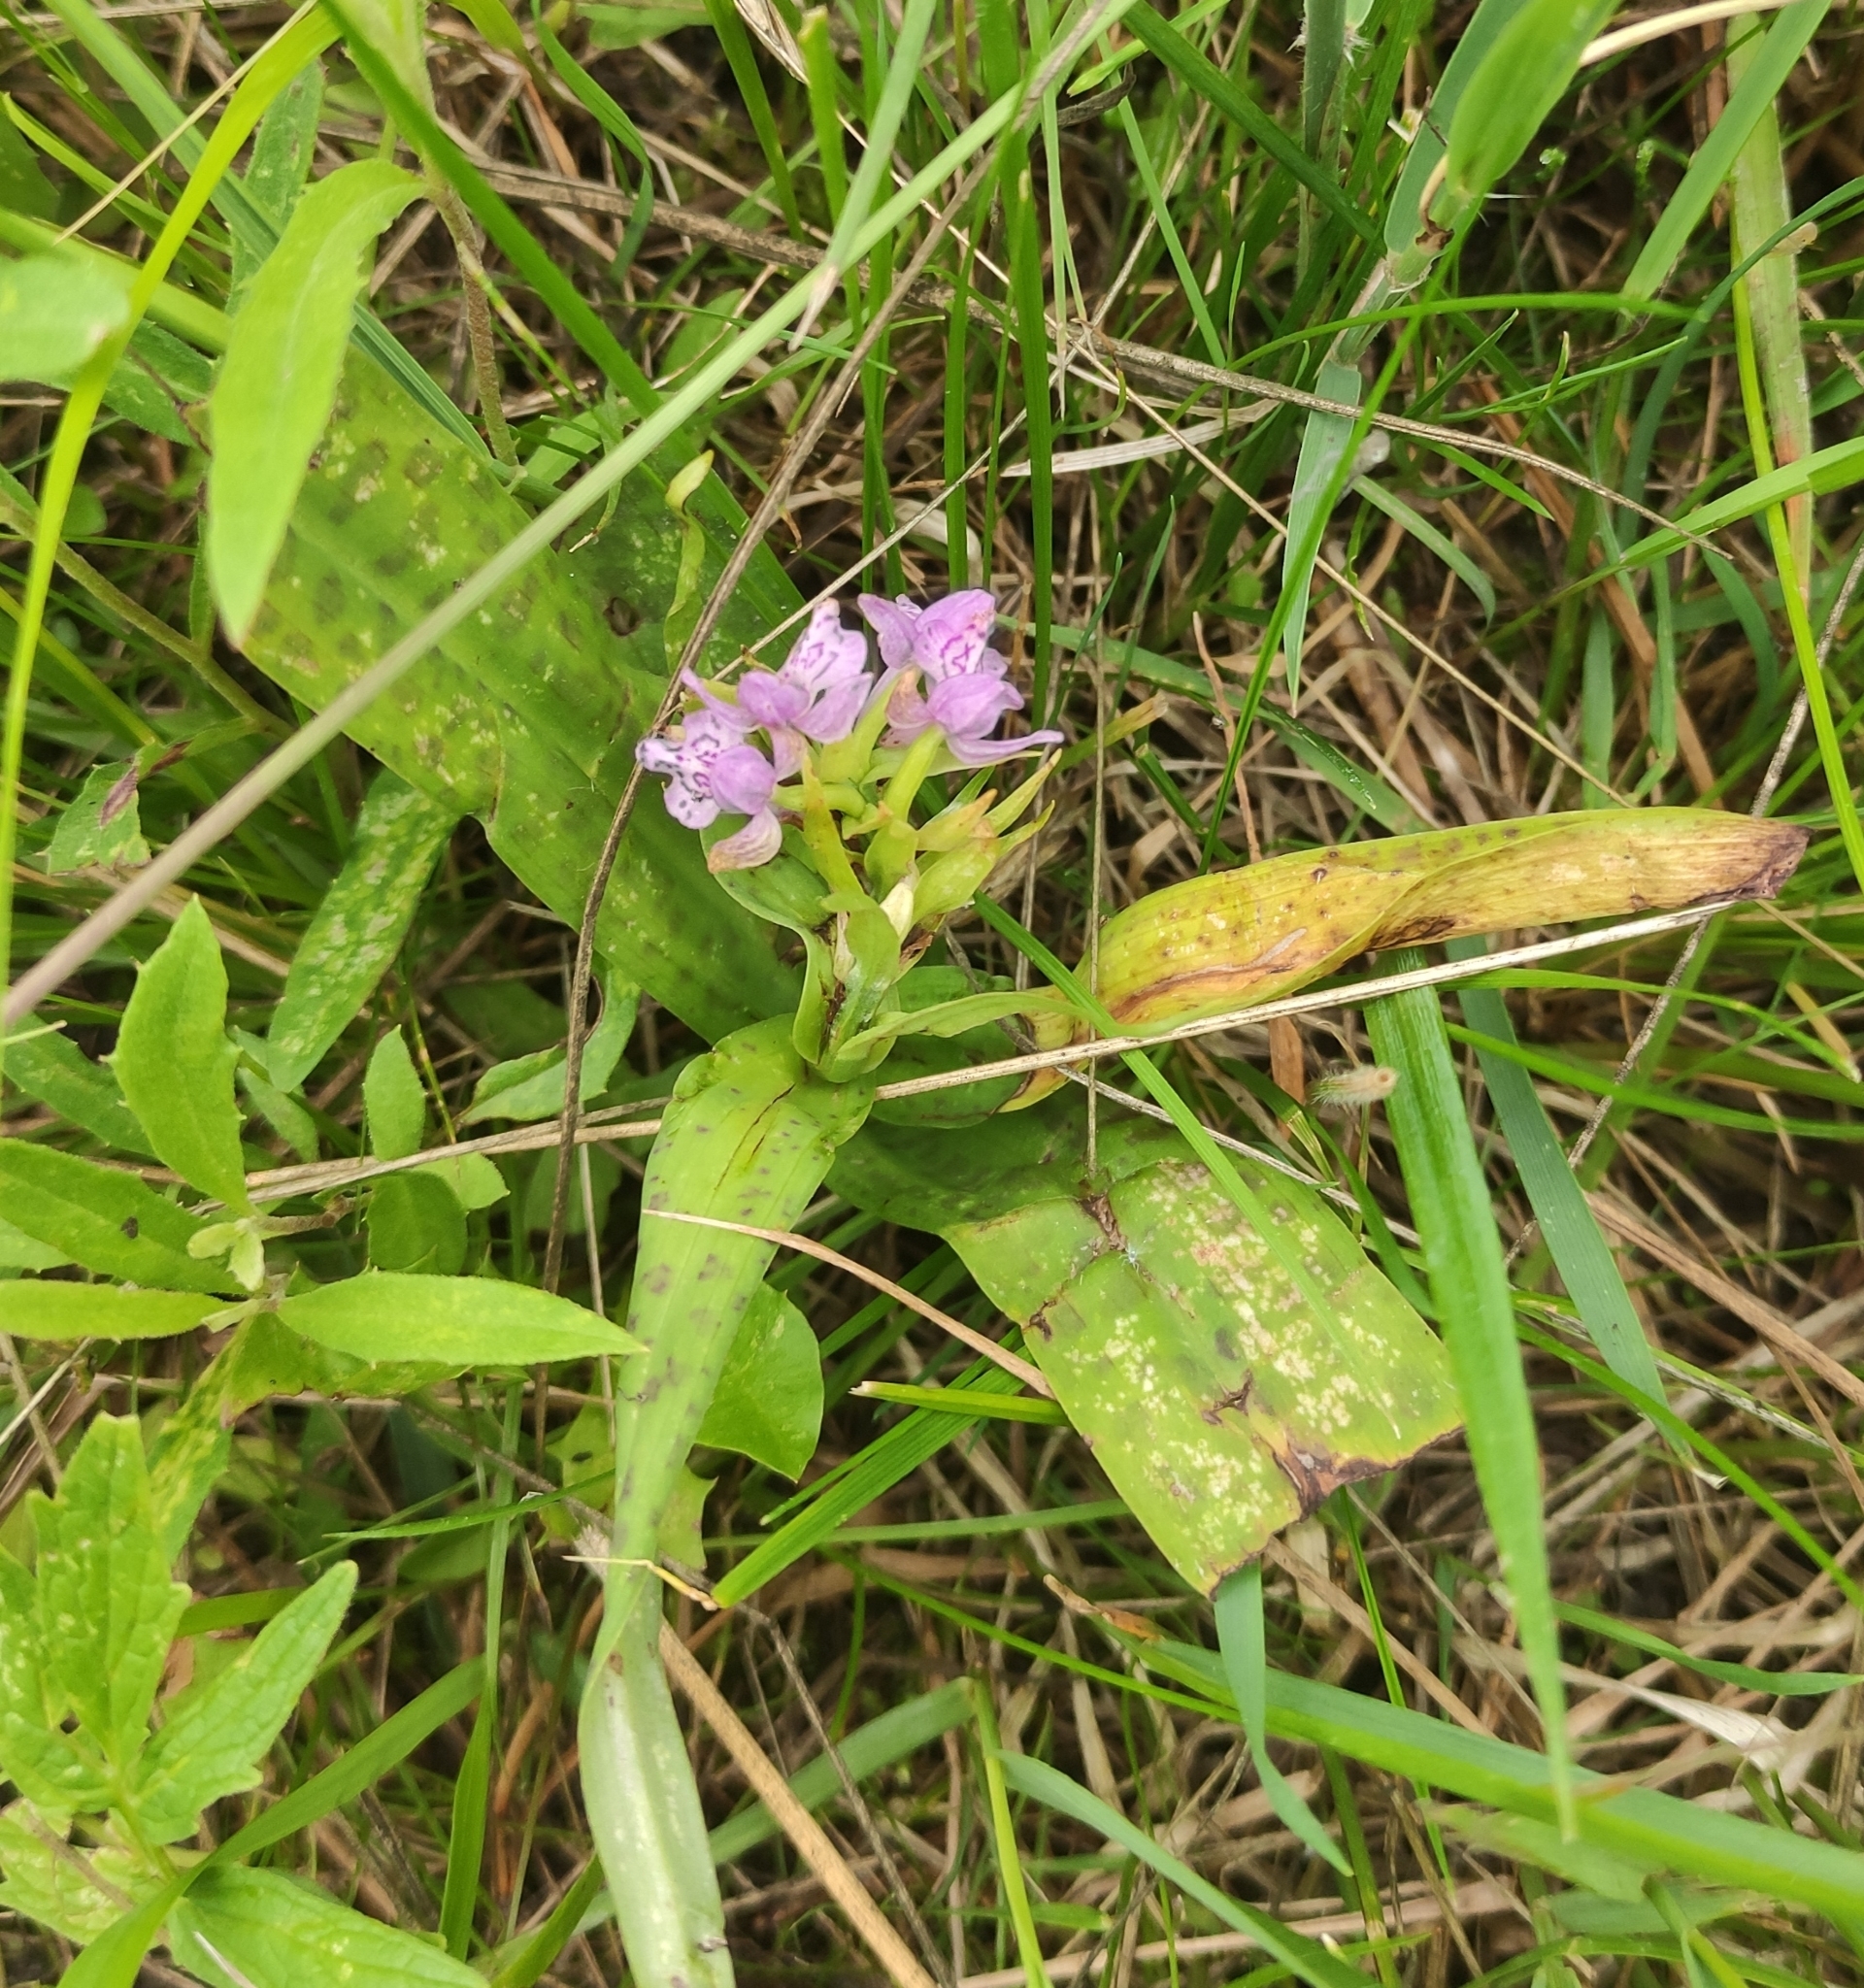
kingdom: Plantae
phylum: Tracheophyta
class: Liliopsida
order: Asparagales
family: Orchidaceae
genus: Dactylorhiza
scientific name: Dactylorhiza majalis
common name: Marsh orchid
